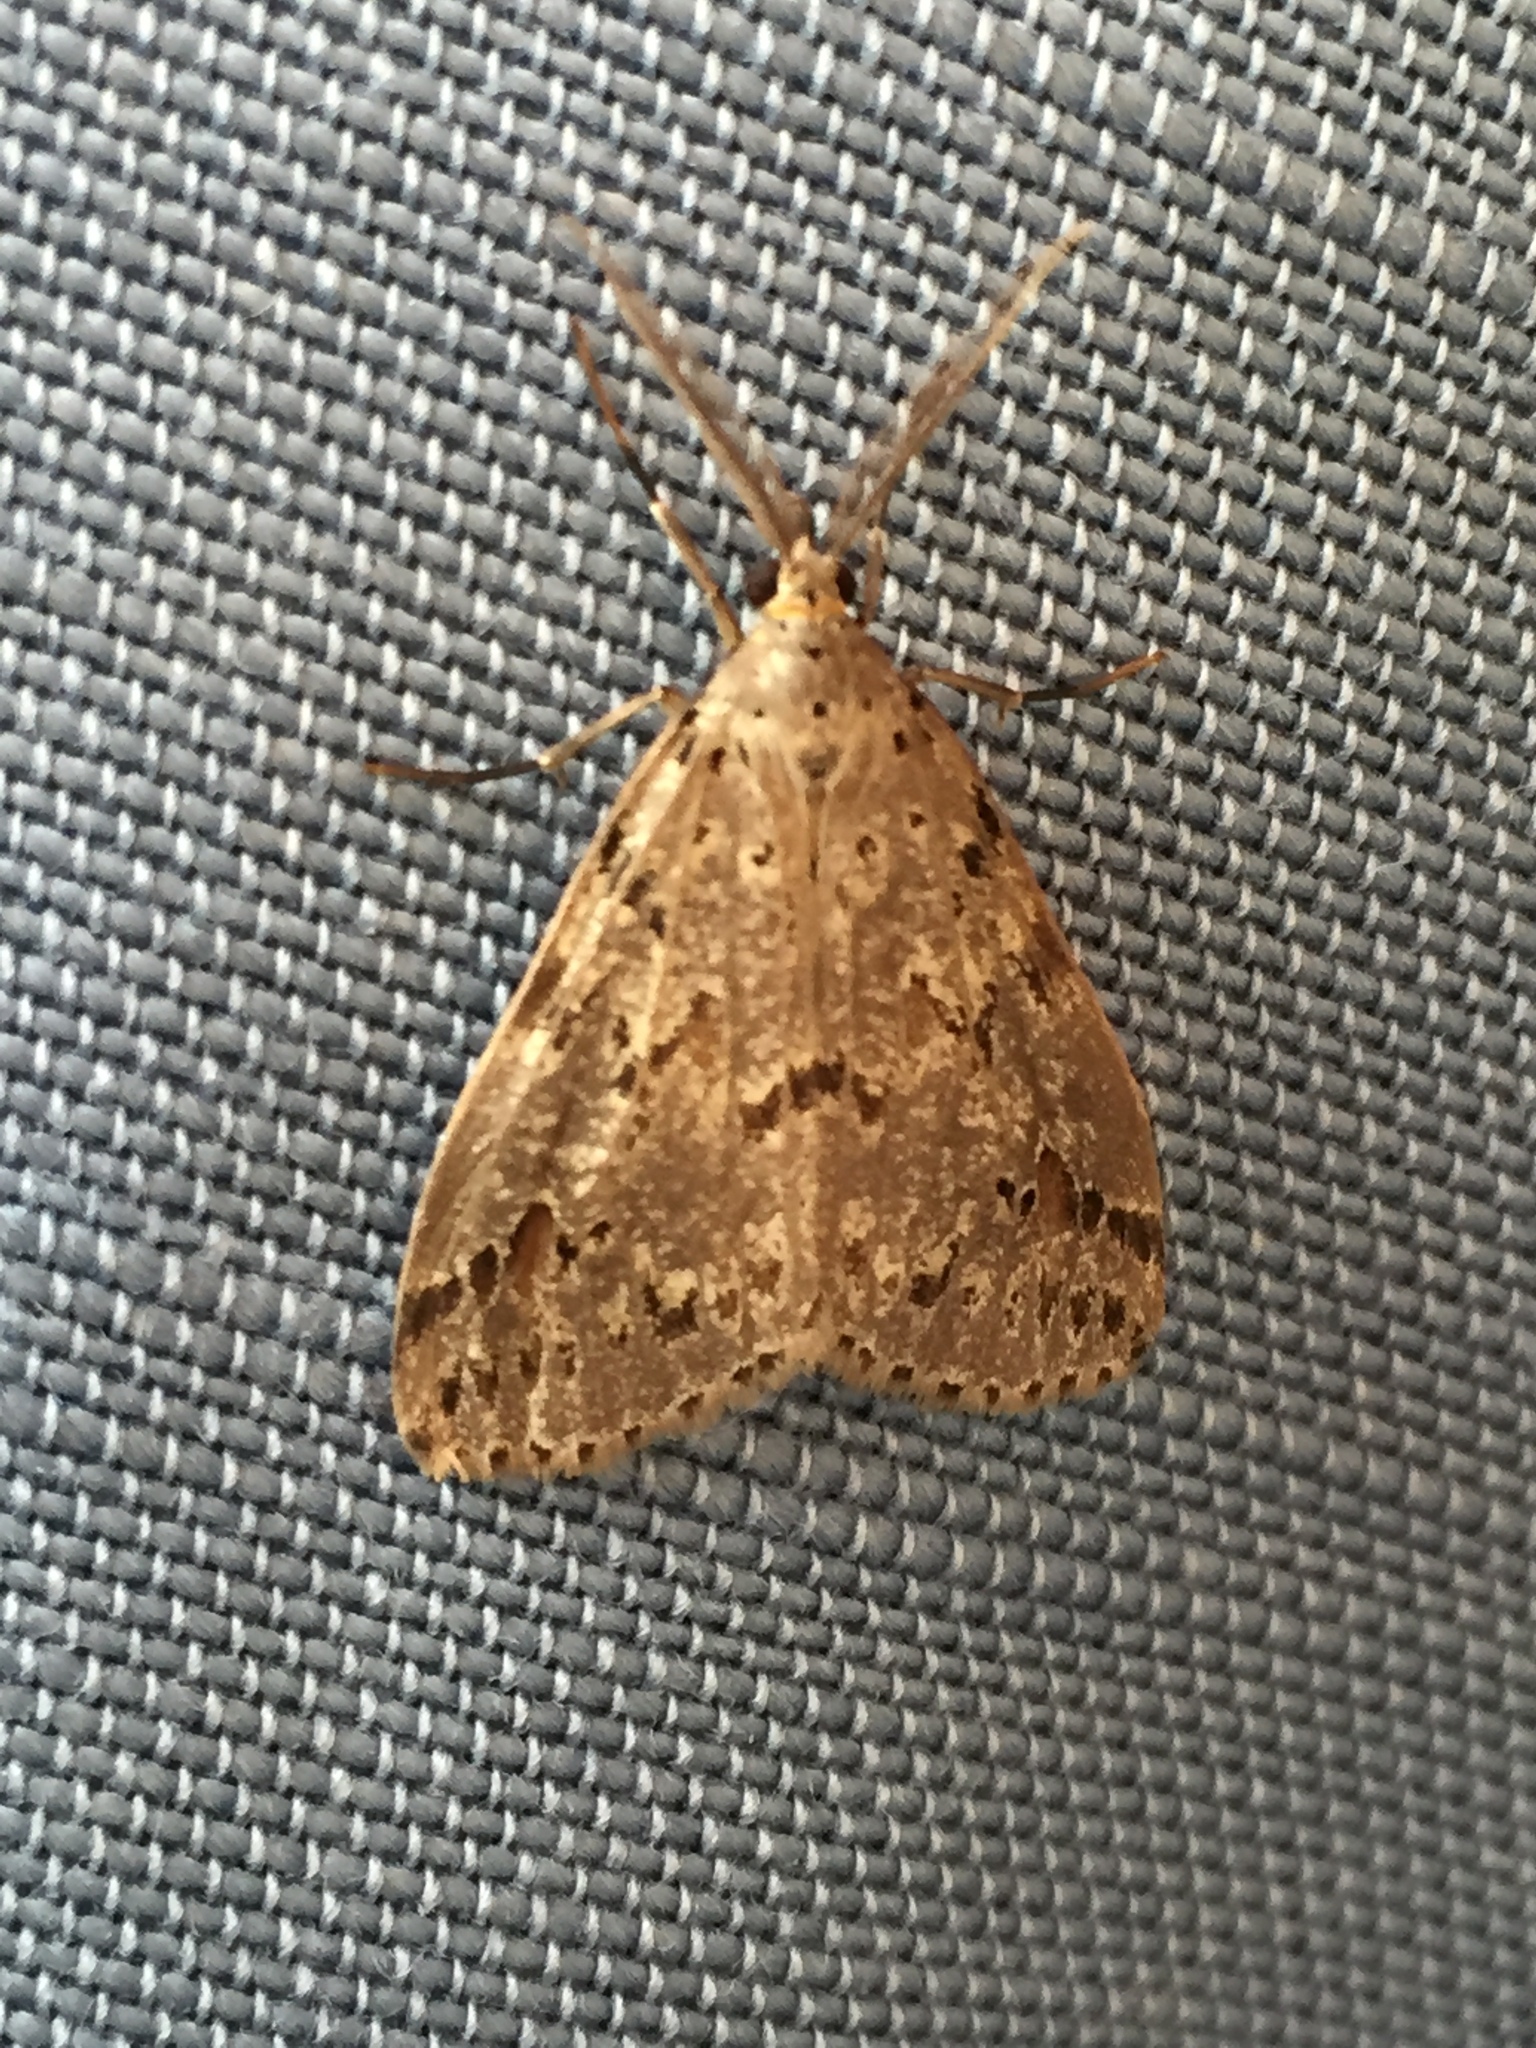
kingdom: Animalia
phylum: Arthropoda
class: Insecta
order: Lepidoptera
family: Erebidae
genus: Galtara
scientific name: Galtara rostrata
